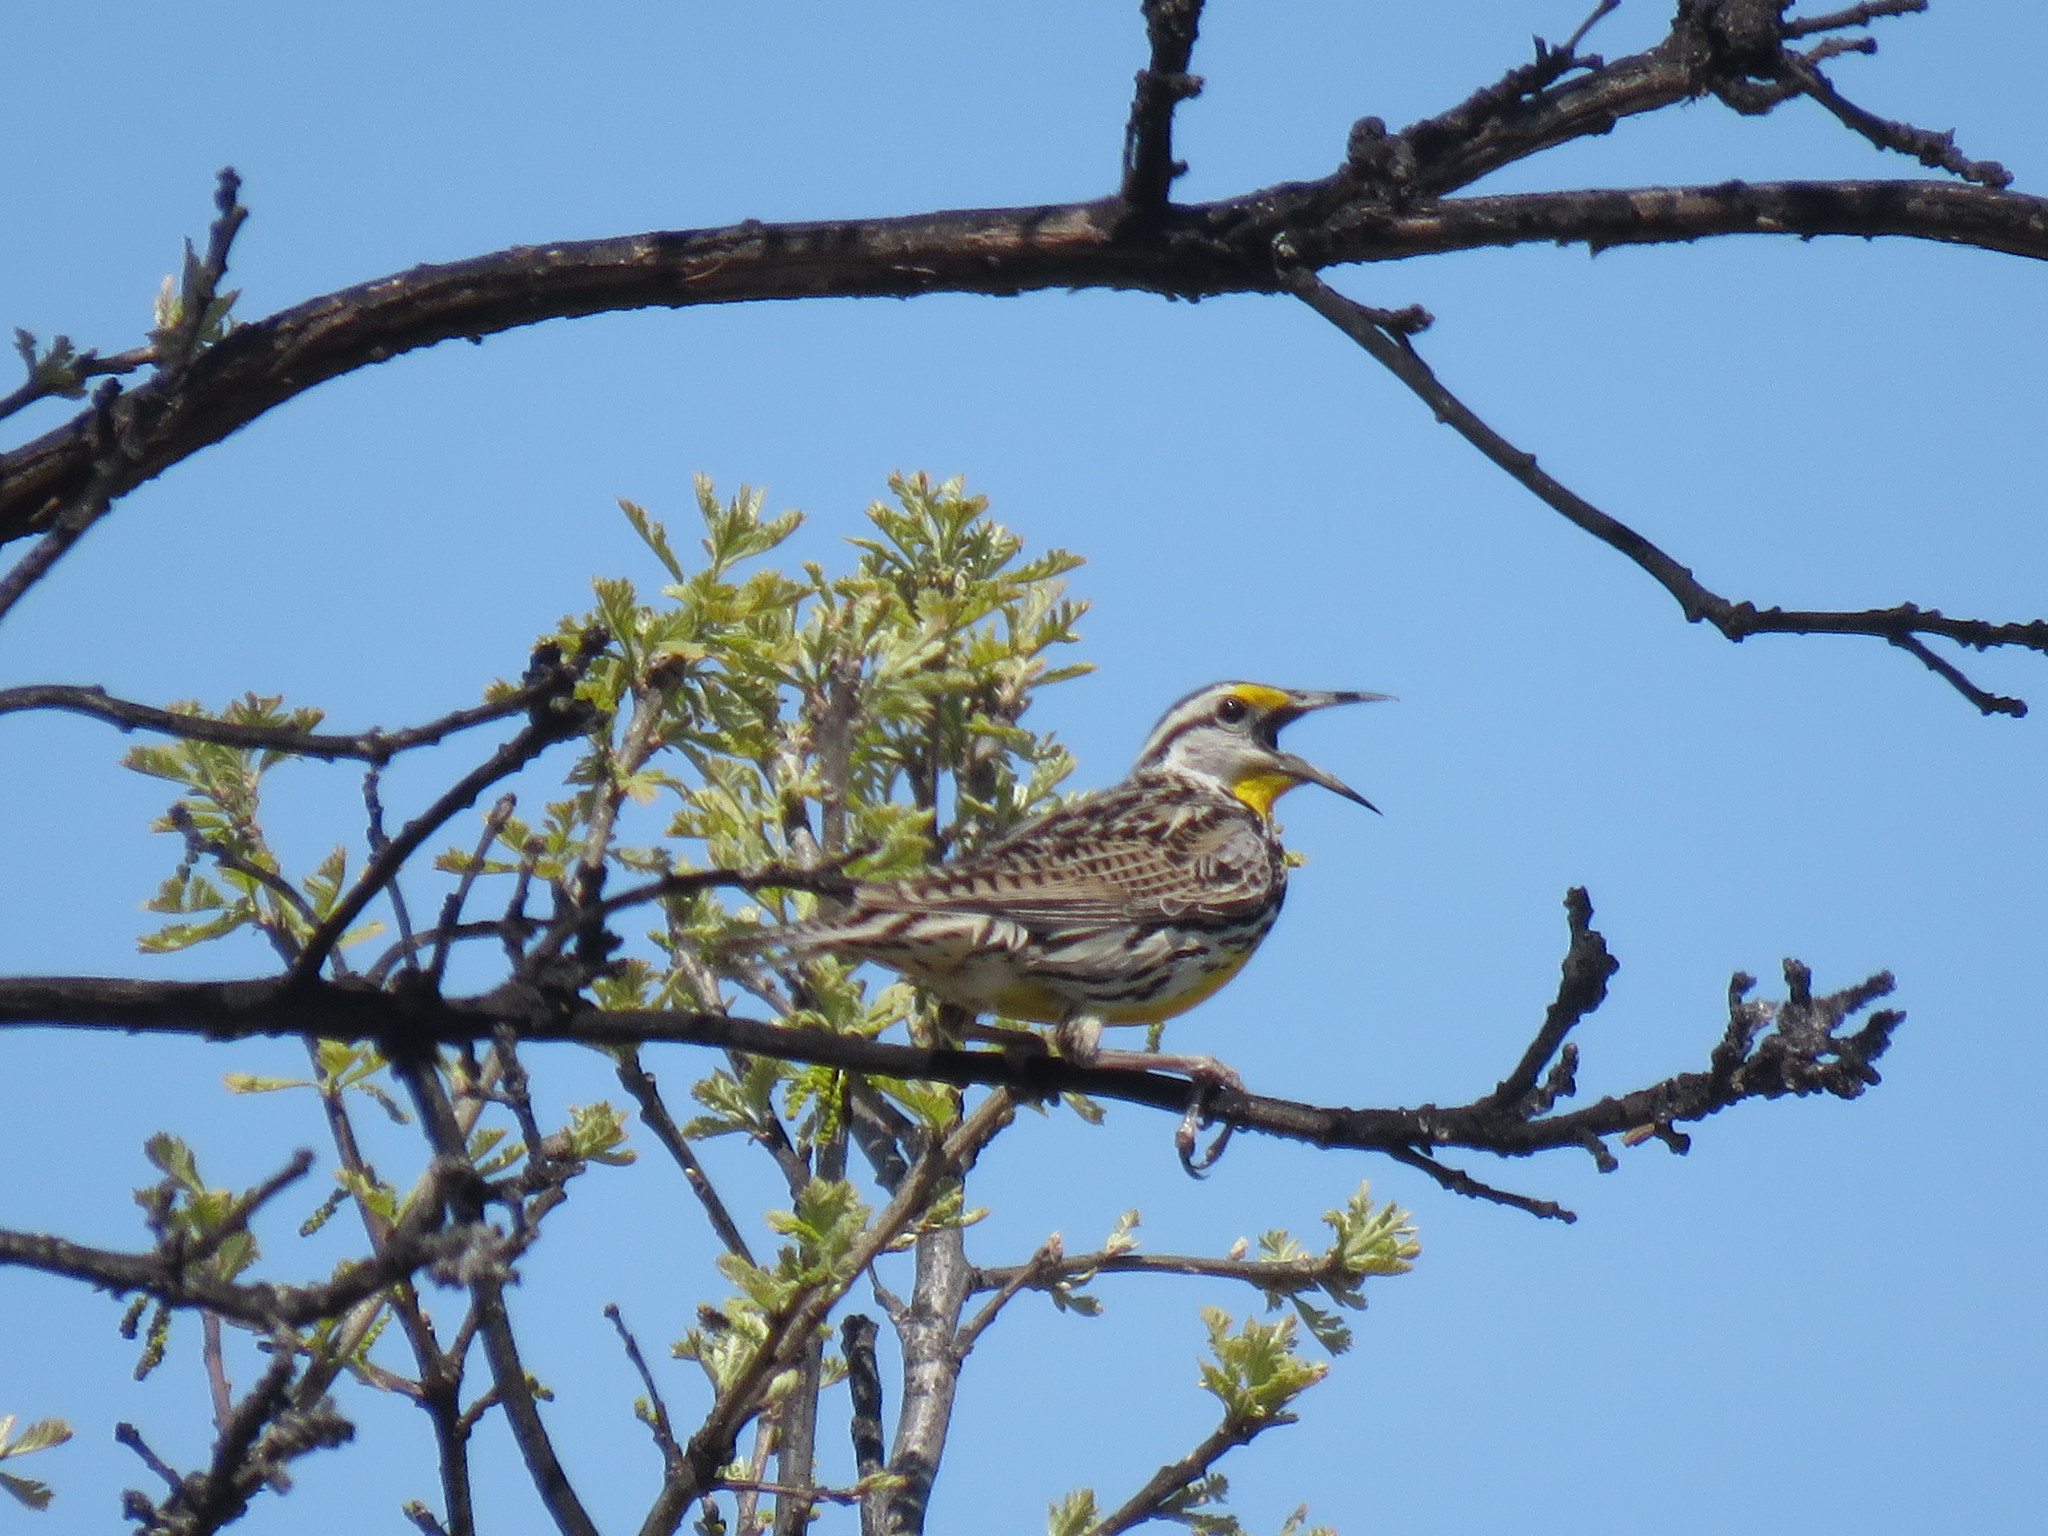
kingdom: Animalia
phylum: Chordata
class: Aves
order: Passeriformes
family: Icteridae
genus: Sturnella
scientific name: Sturnella magna
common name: Eastern meadowlark
